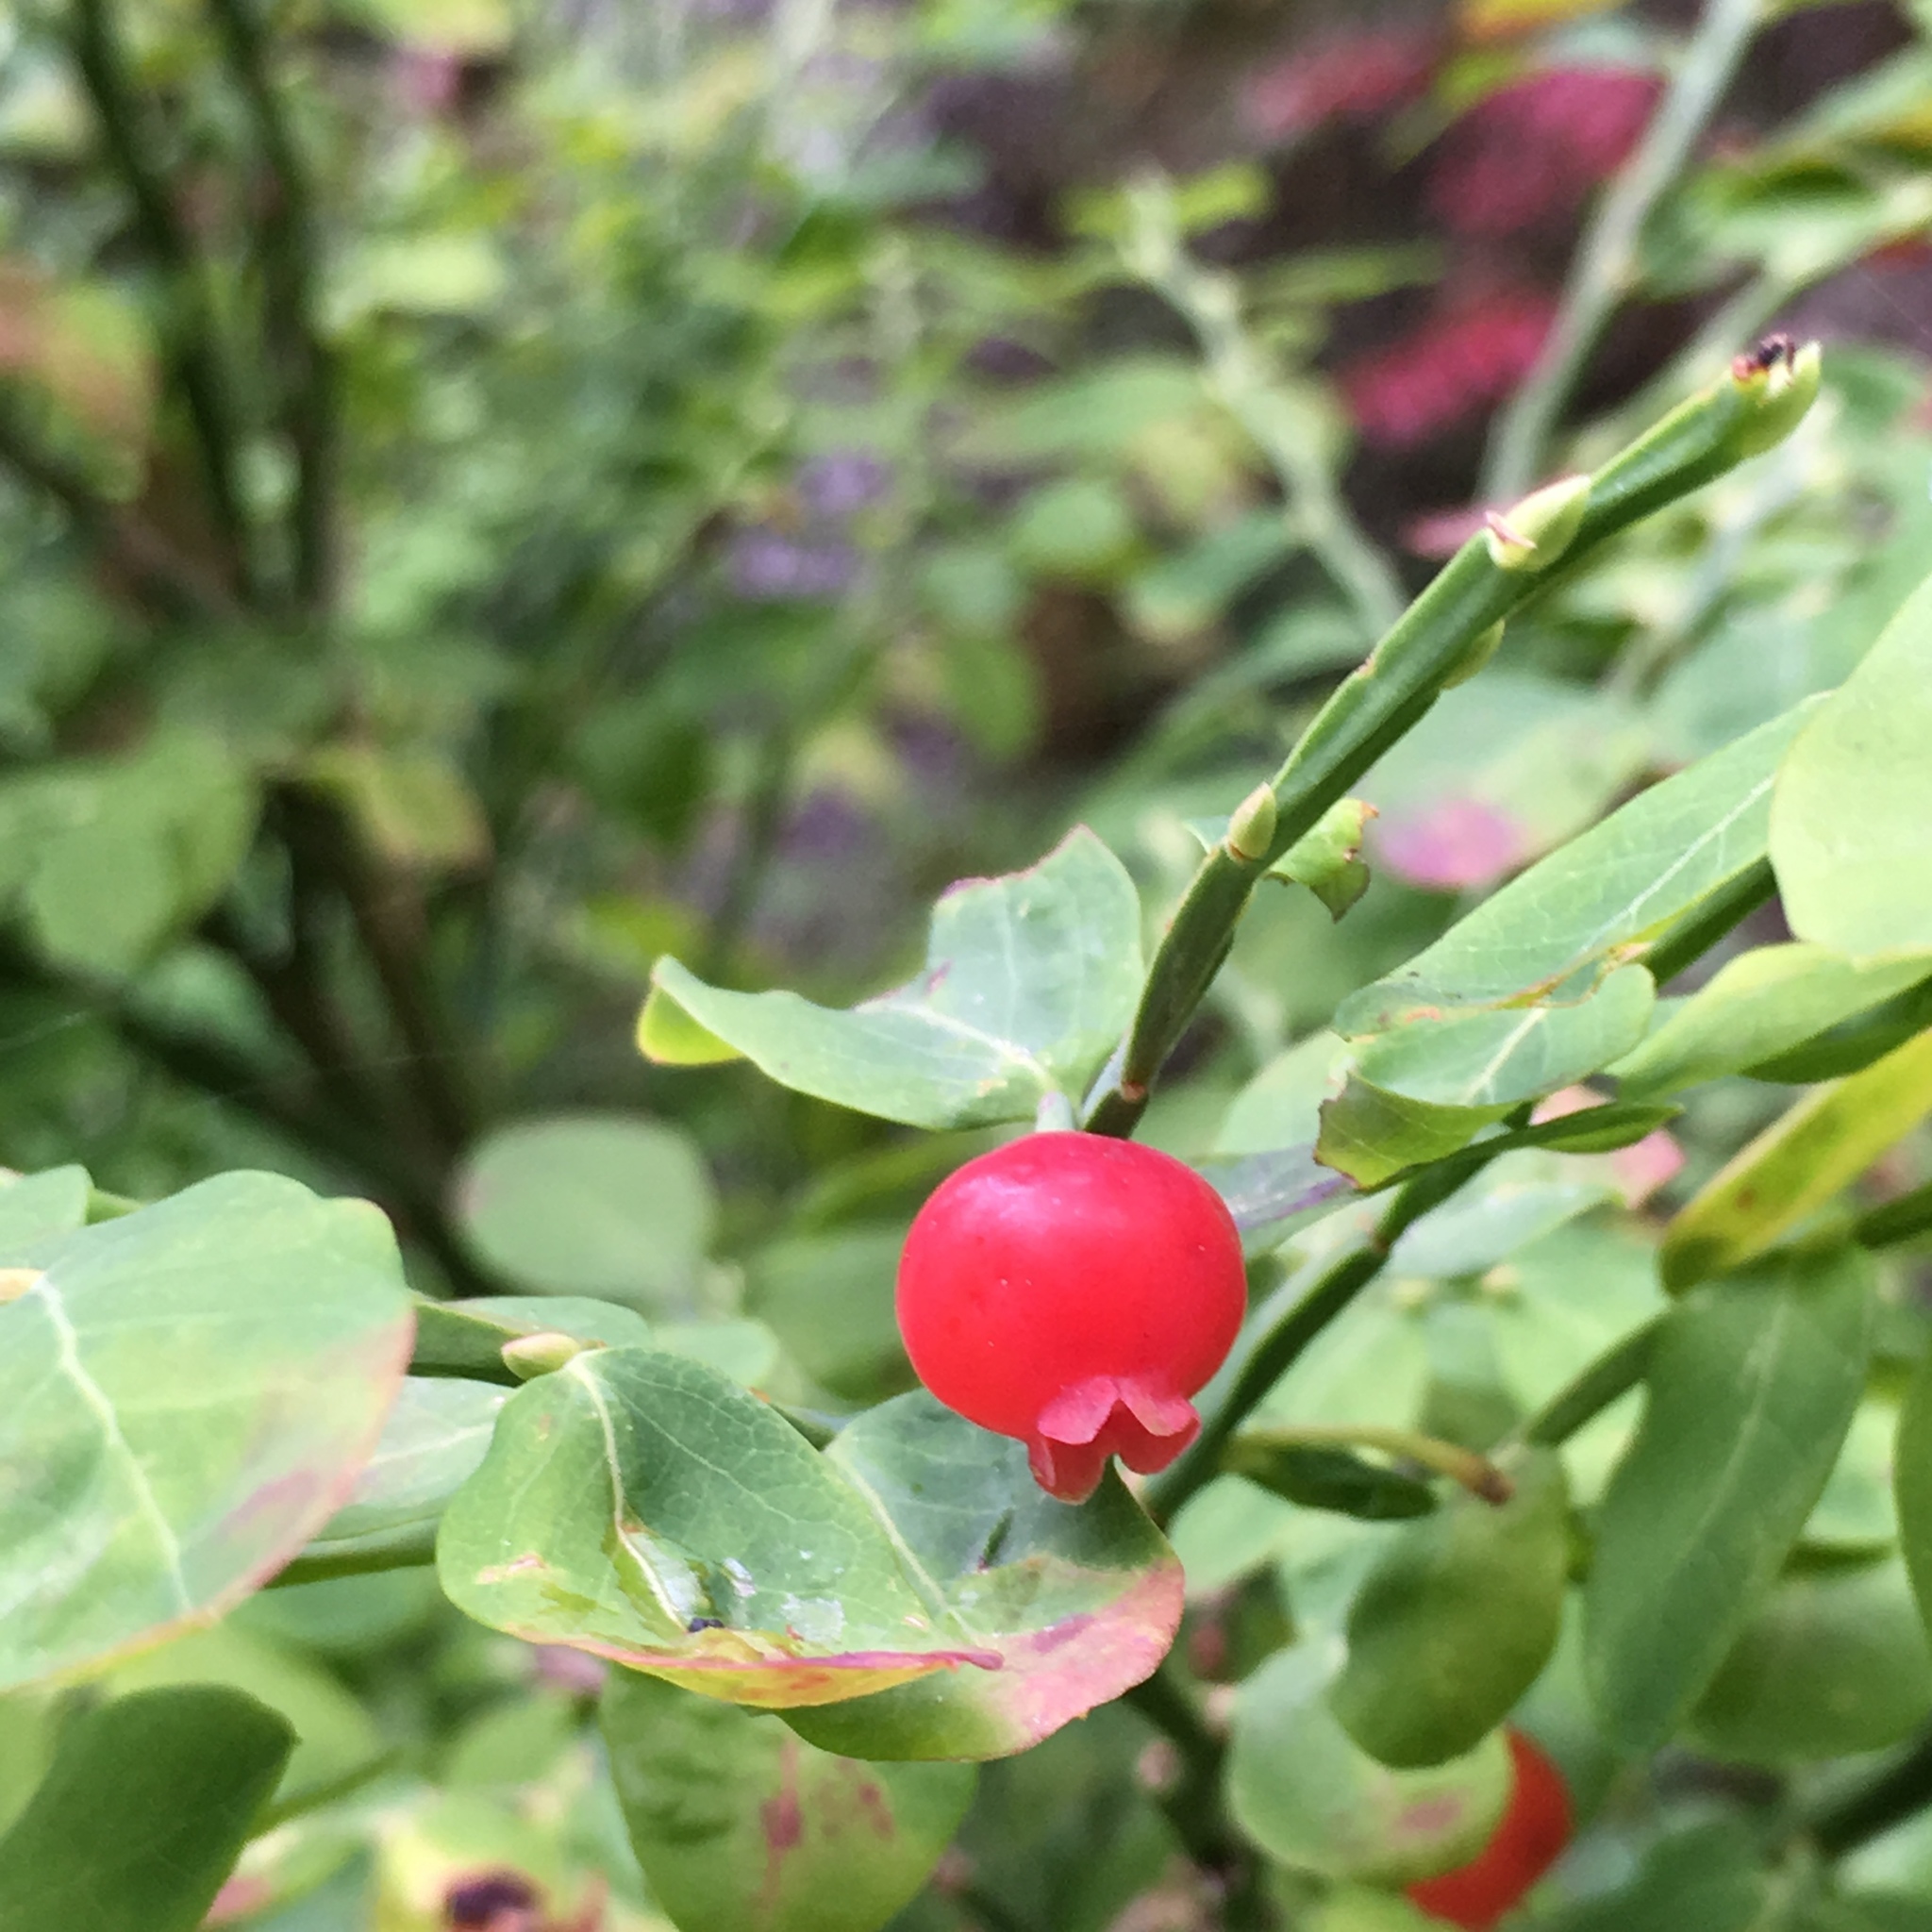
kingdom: Plantae
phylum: Tracheophyta
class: Magnoliopsida
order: Ericales
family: Ericaceae
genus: Vaccinium
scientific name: Vaccinium parvifolium
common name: Red-huckleberry
